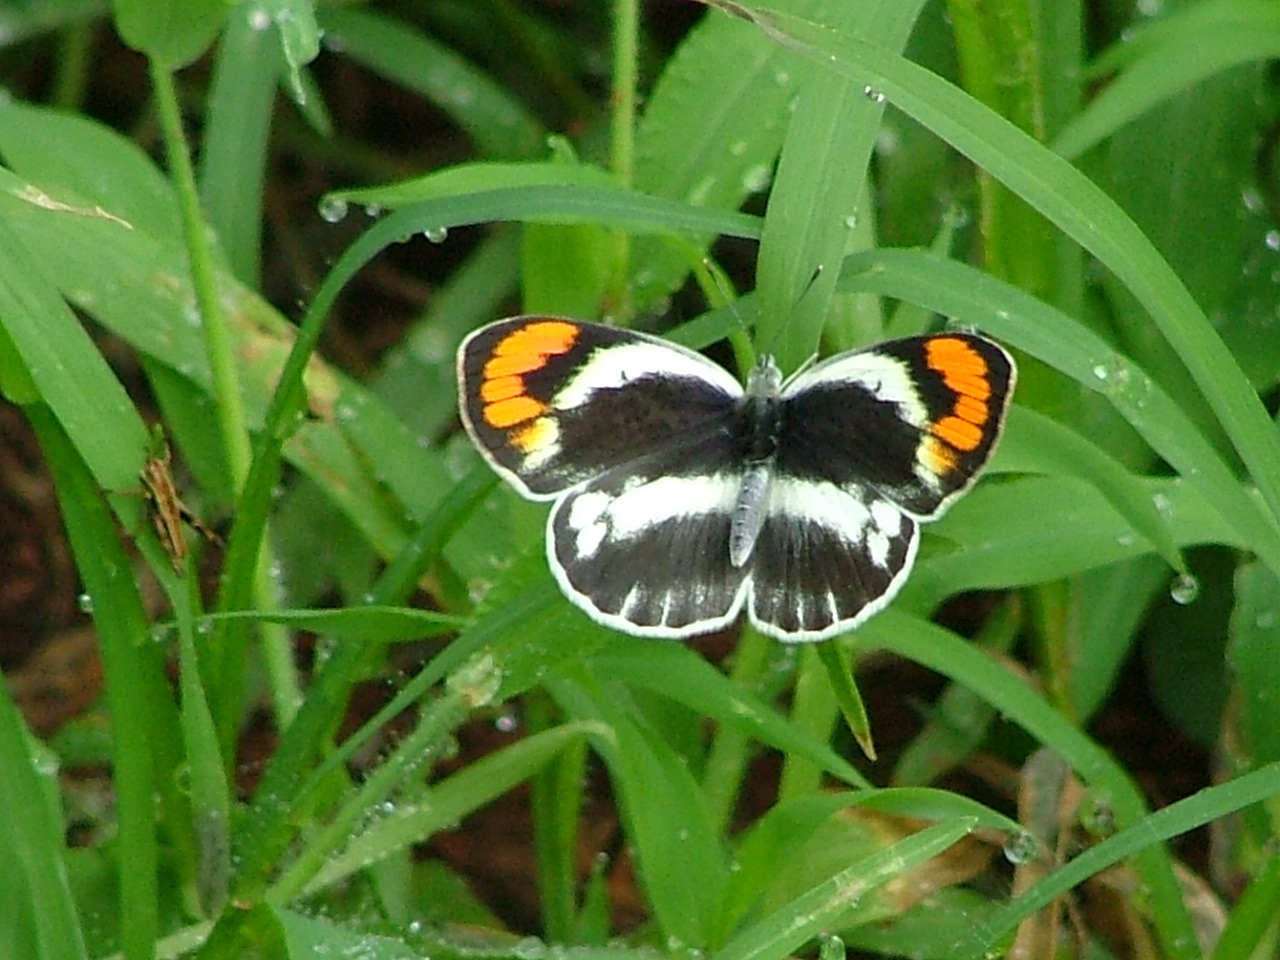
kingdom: Animalia
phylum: Arthropoda
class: Insecta
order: Lepidoptera
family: Pieridae
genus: Colotis
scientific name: Colotis euippe
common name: Round-winged orange tip
